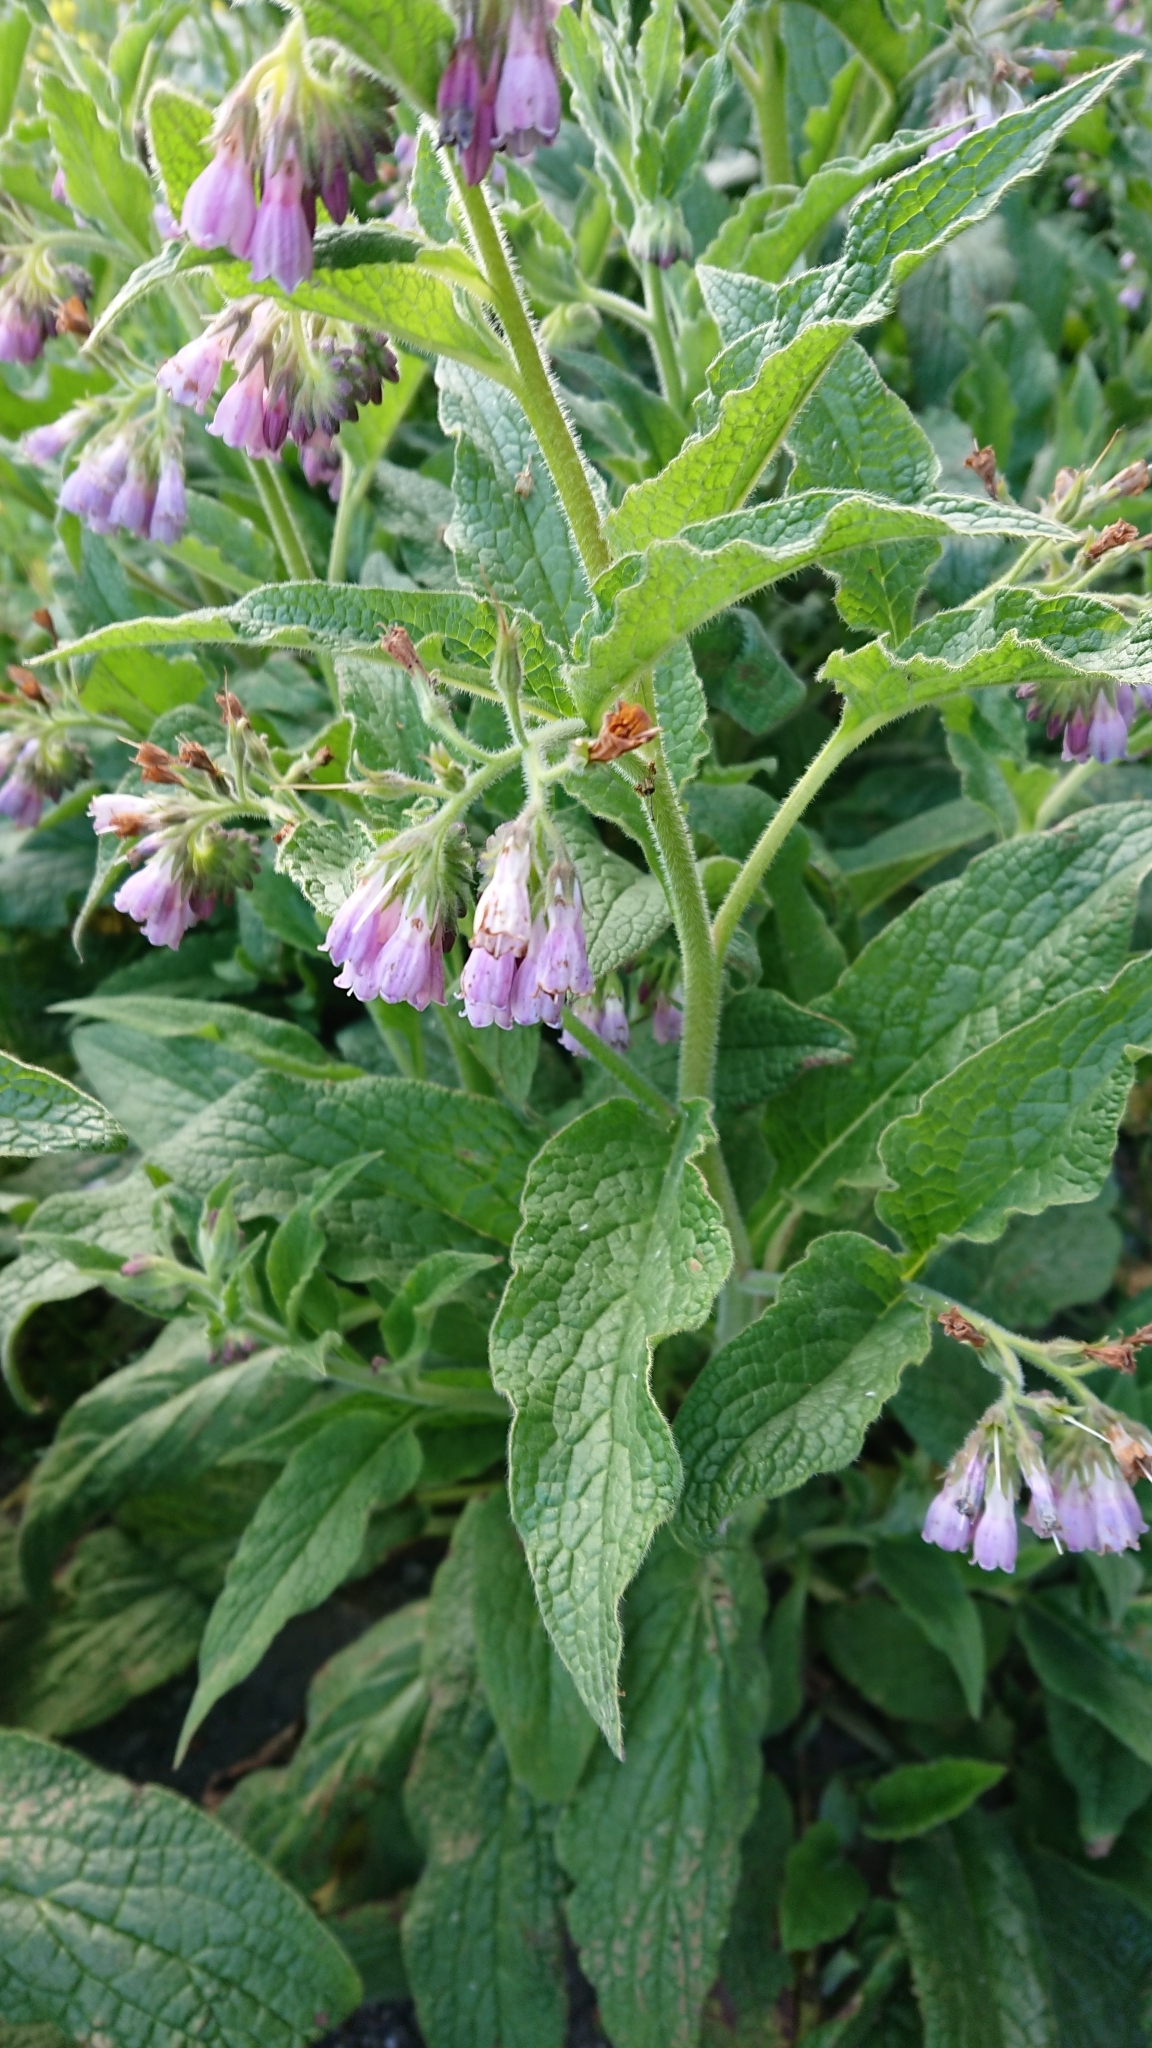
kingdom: Plantae
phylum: Tracheophyta
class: Magnoliopsida
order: Boraginales
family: Boraginaceae
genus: Symphytum
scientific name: Symphytum uplandicum
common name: Russian comfrey
